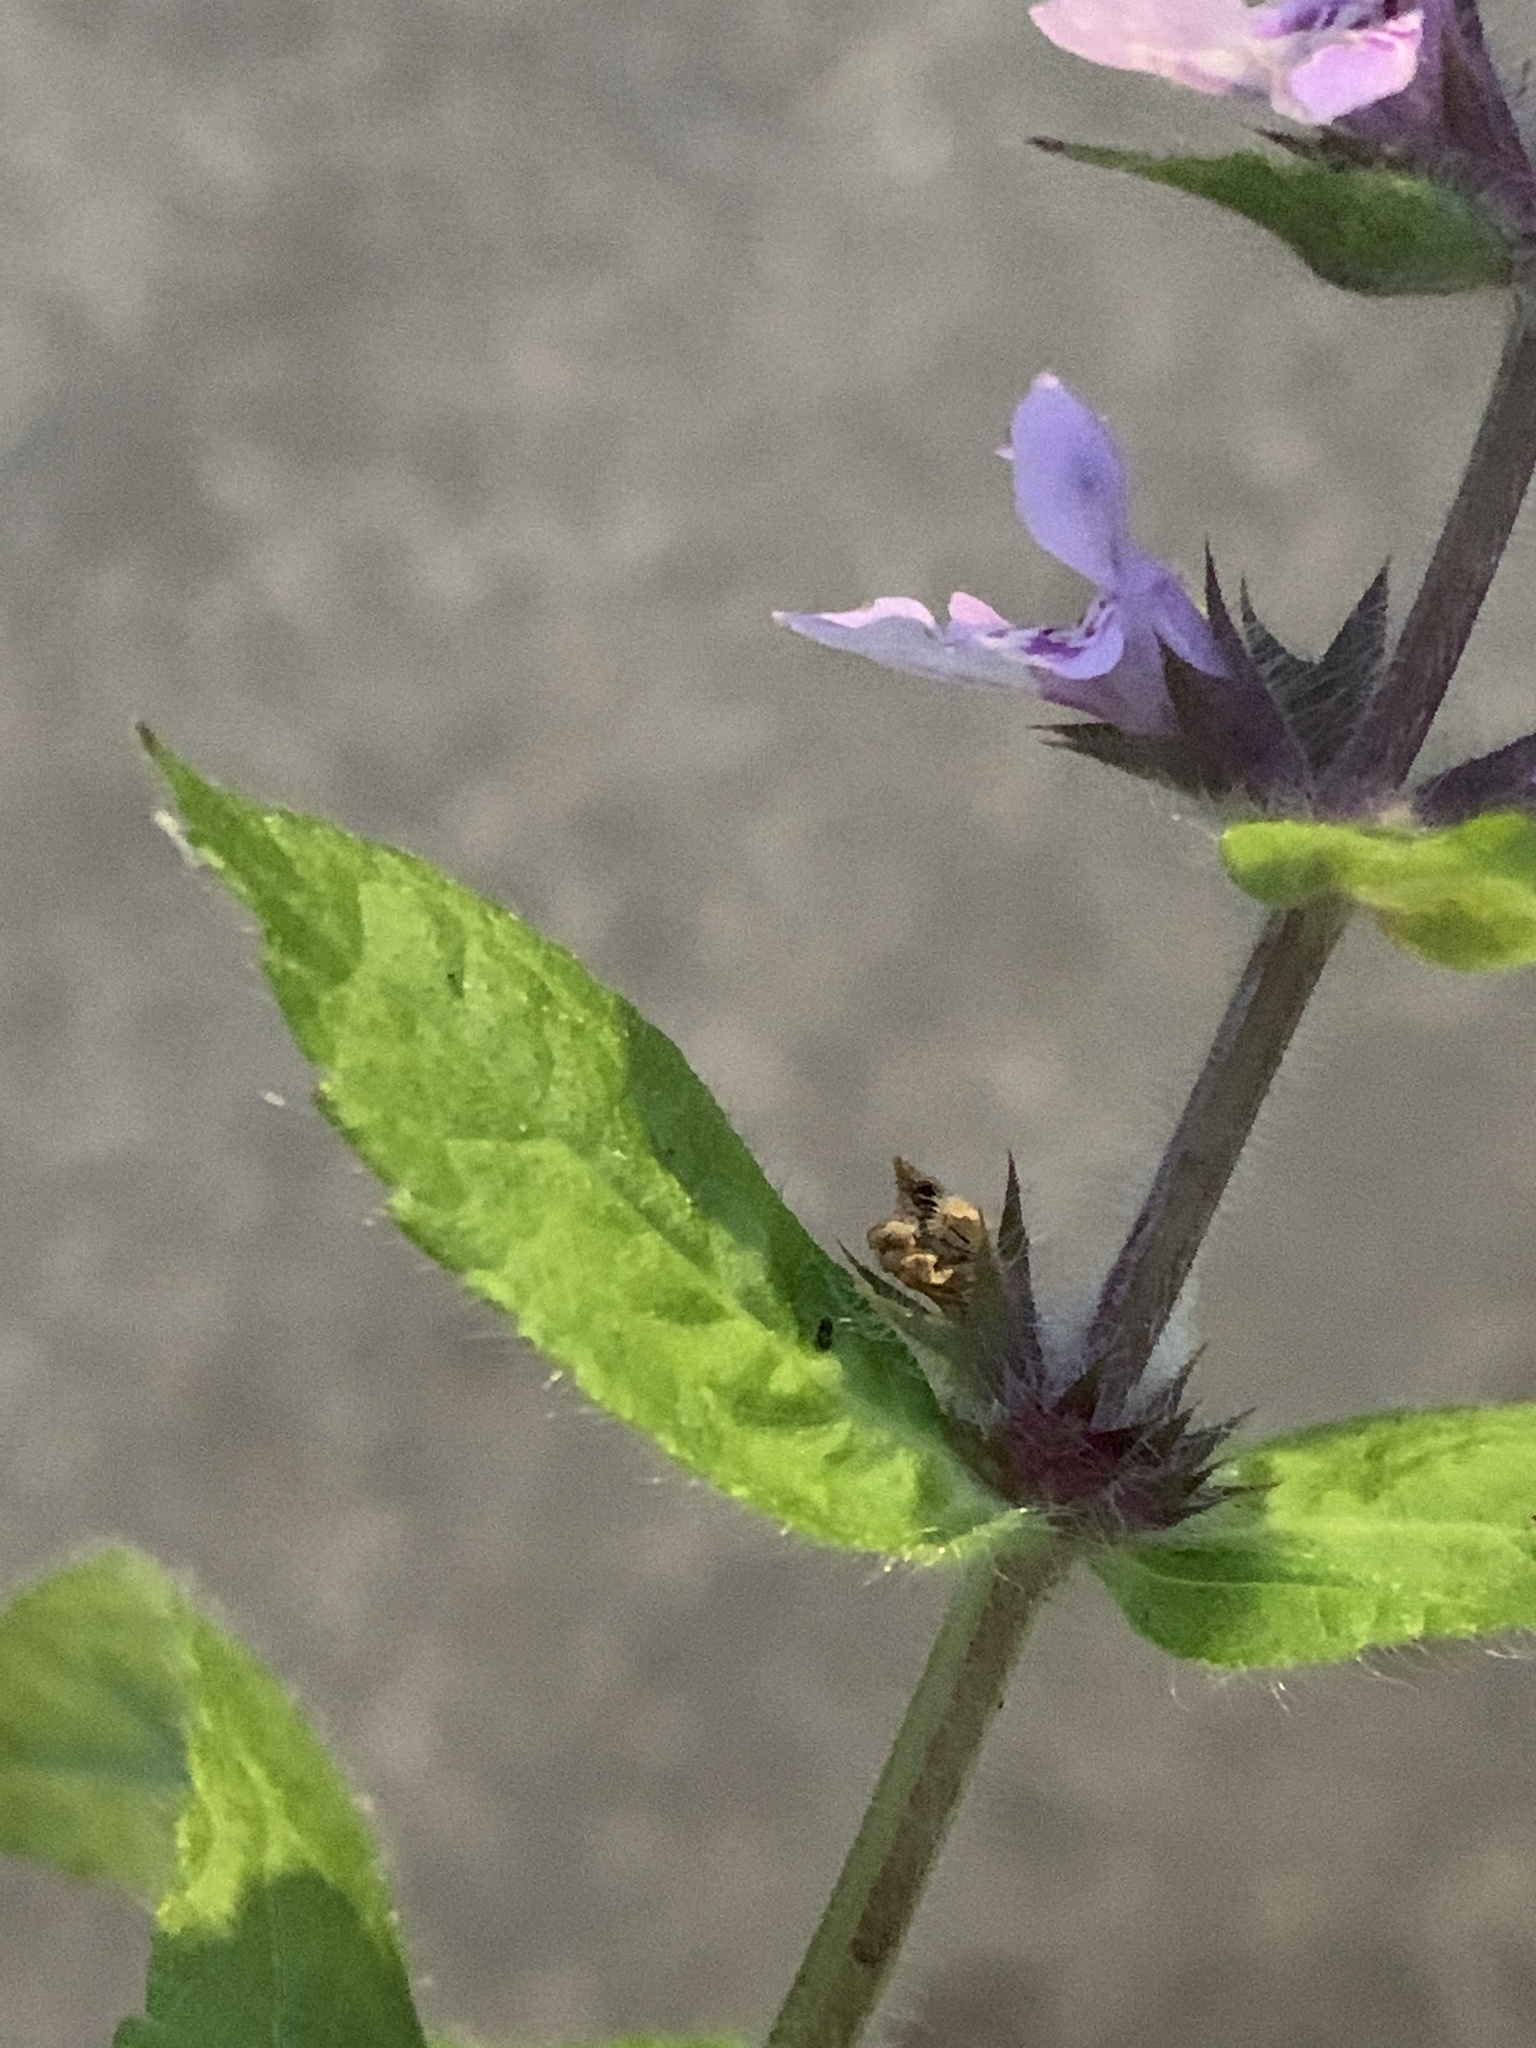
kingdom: Plantae
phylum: Tracheophyta
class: Magnoliopsida
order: Lamiales
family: Lamiaceae
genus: Stachys
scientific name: Stachys pilosa
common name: Hairy hedge-nettle
